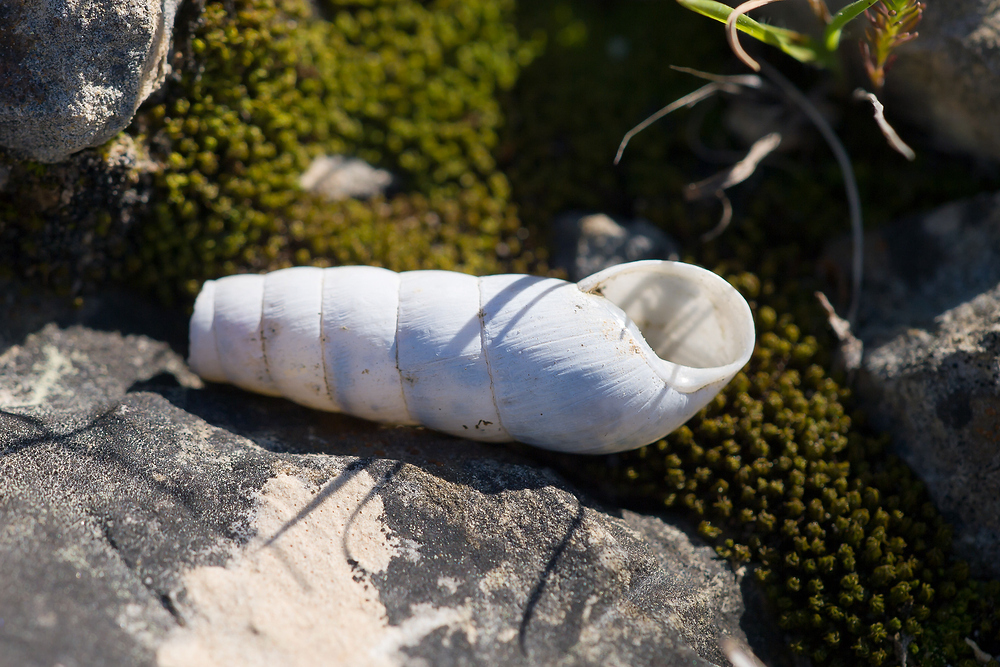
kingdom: Animalia
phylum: Mollusca
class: Gastropoda
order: Stylommatophora
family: Achatinidae
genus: Rumina
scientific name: Rumina saharica
